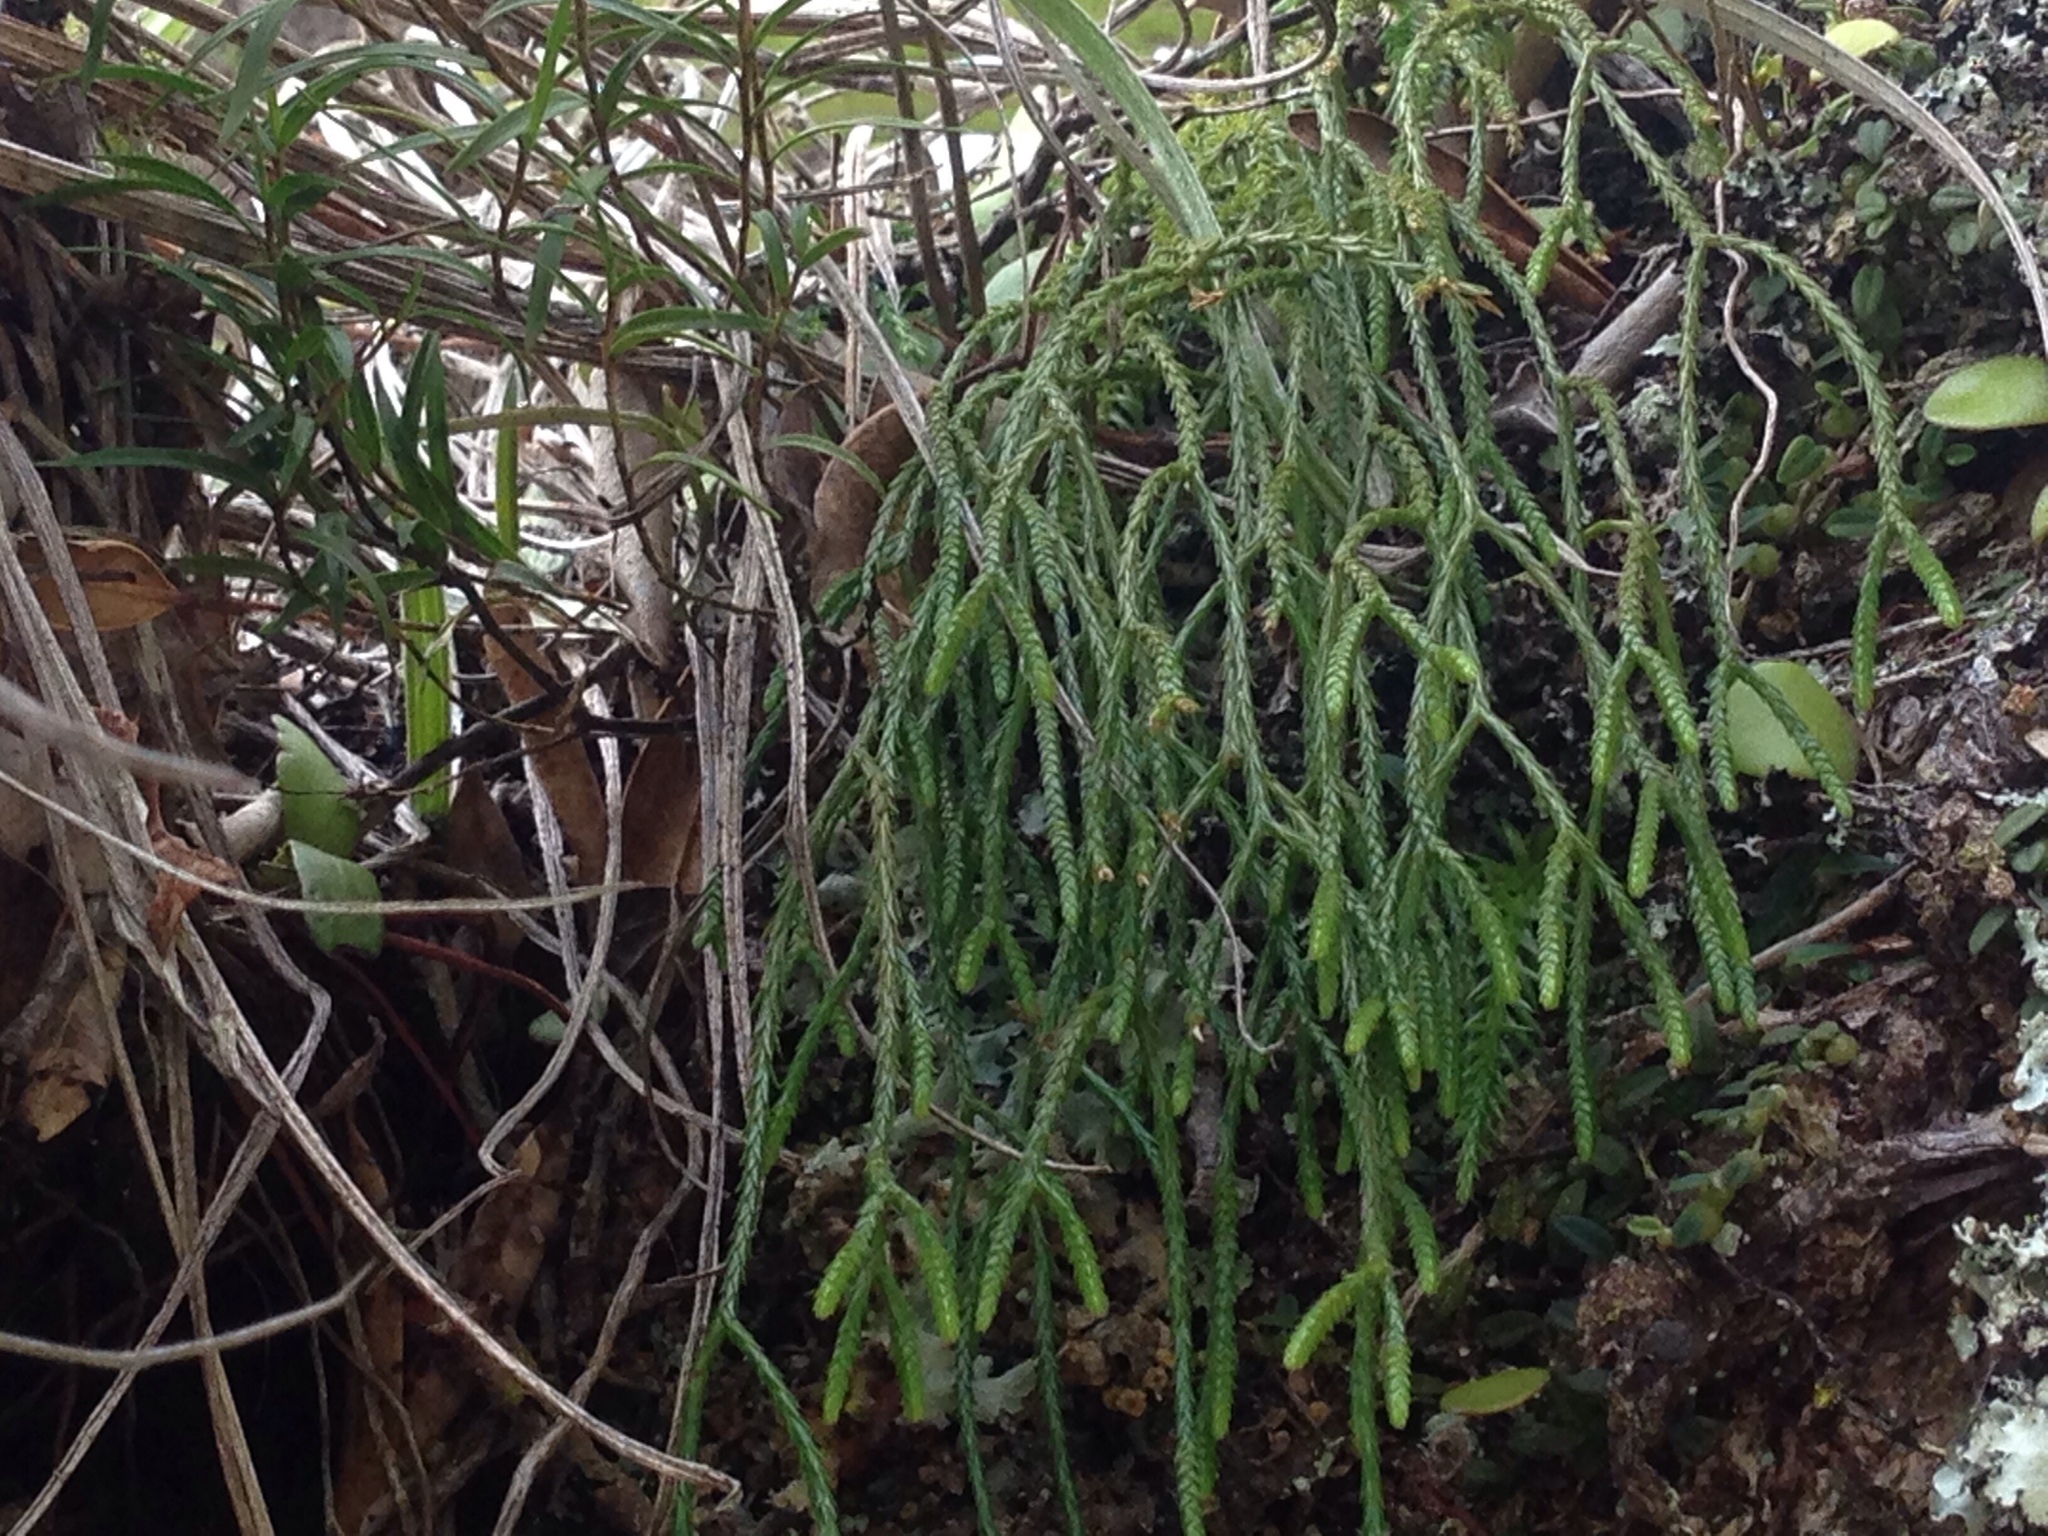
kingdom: Plantae
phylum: Tracheophyta
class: Lycopodiopsida
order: Lycopodiales
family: Lycopodiaceae
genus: Phlegmariurus
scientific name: Phlegmariurus billardierei
